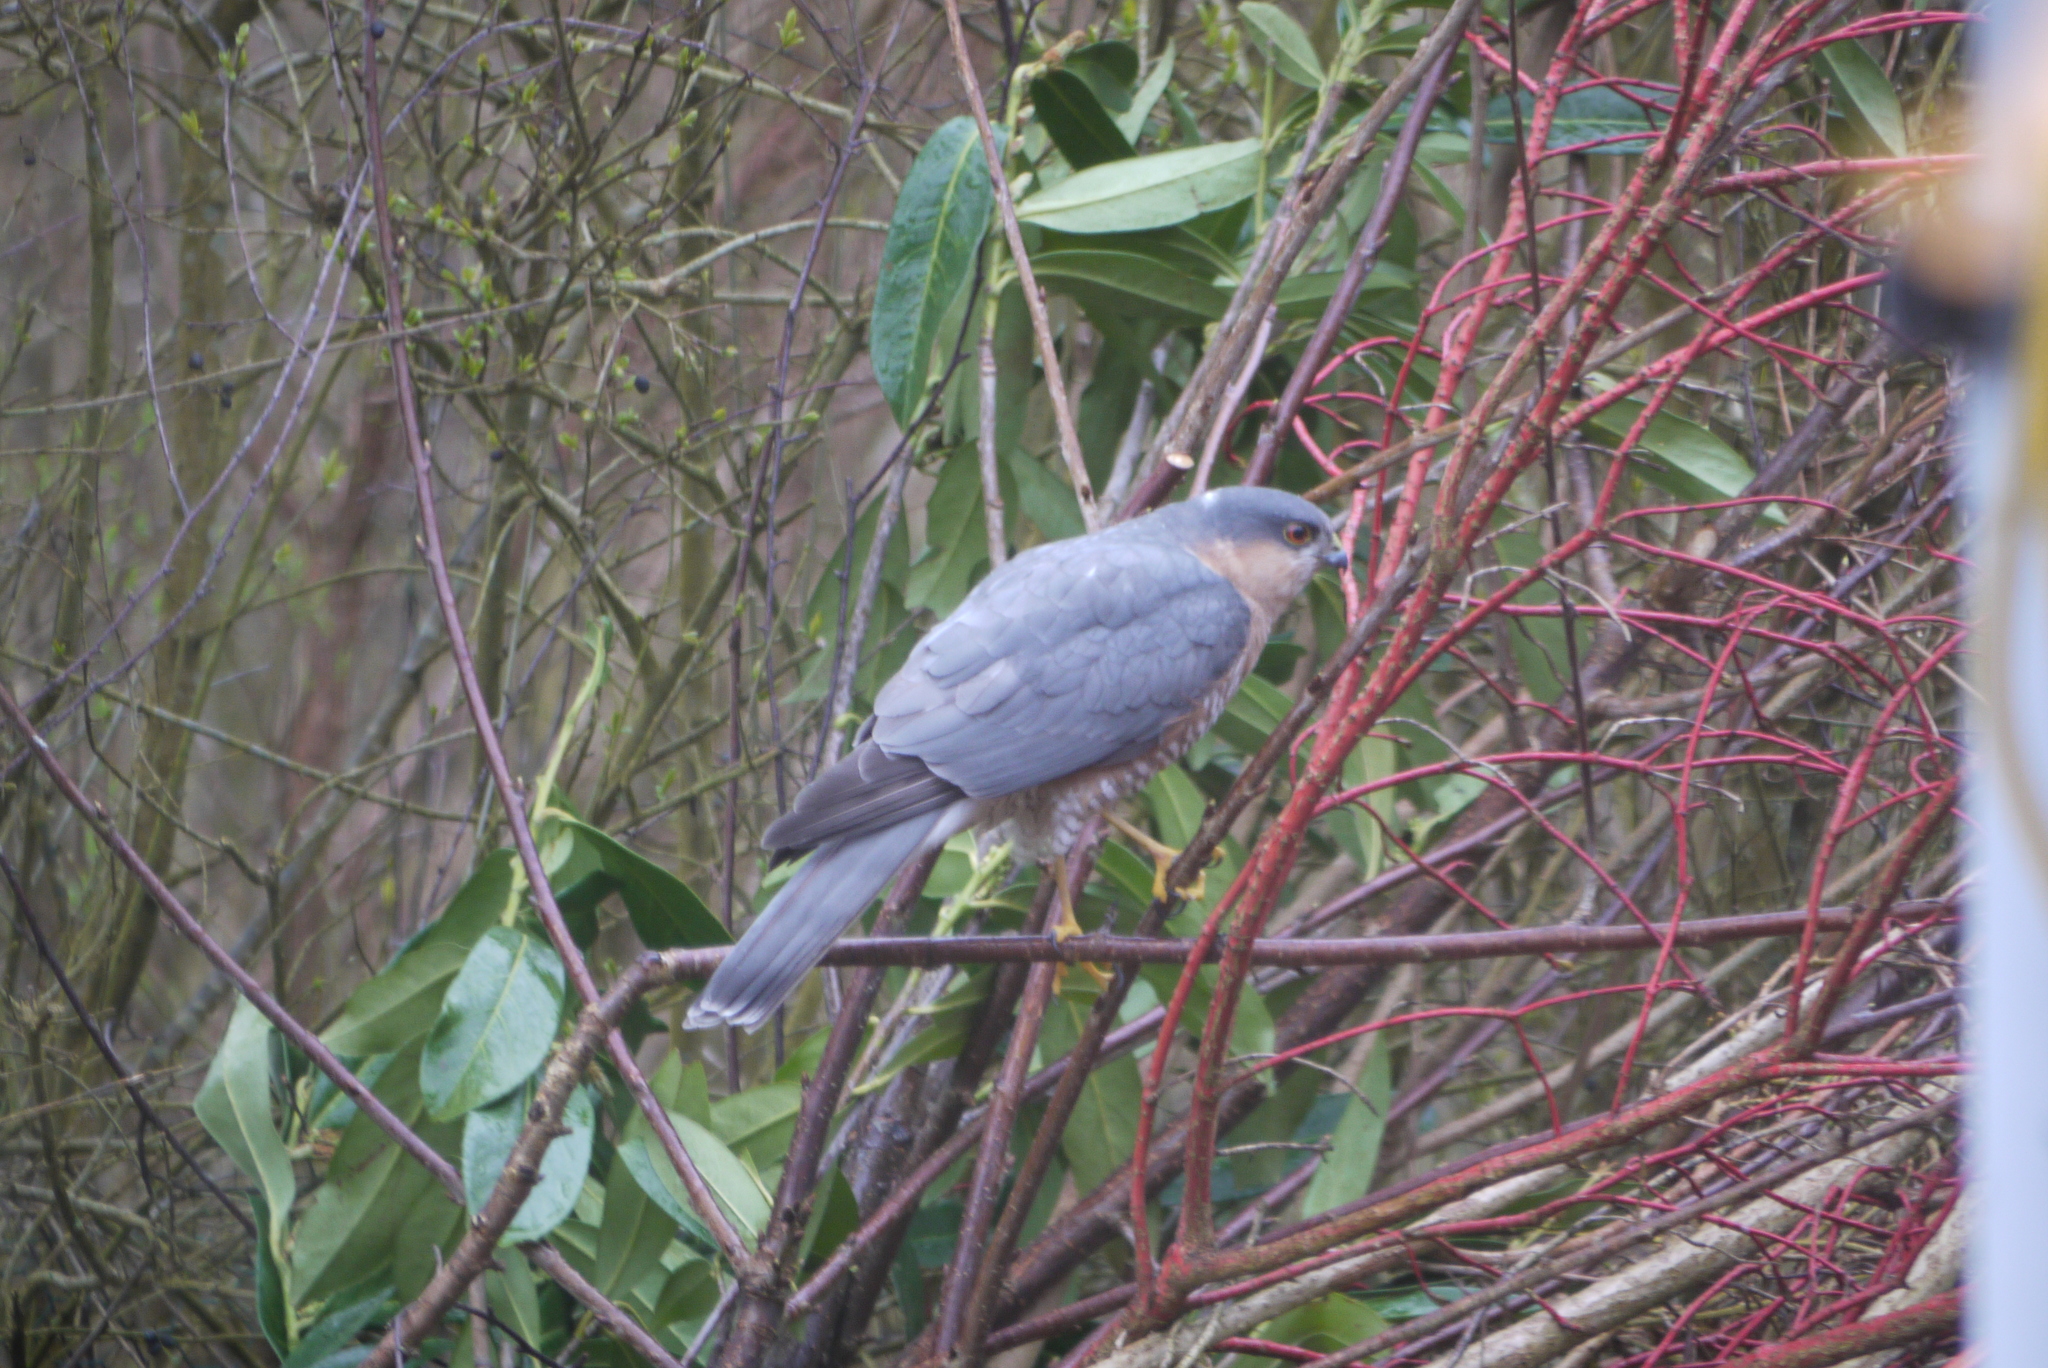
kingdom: Animalia
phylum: Chordata
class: Aves
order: Accipitriformes
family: Accipitridae
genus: Accipiter
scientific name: Accipiter nisus
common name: Eurasian sparrowhawk
